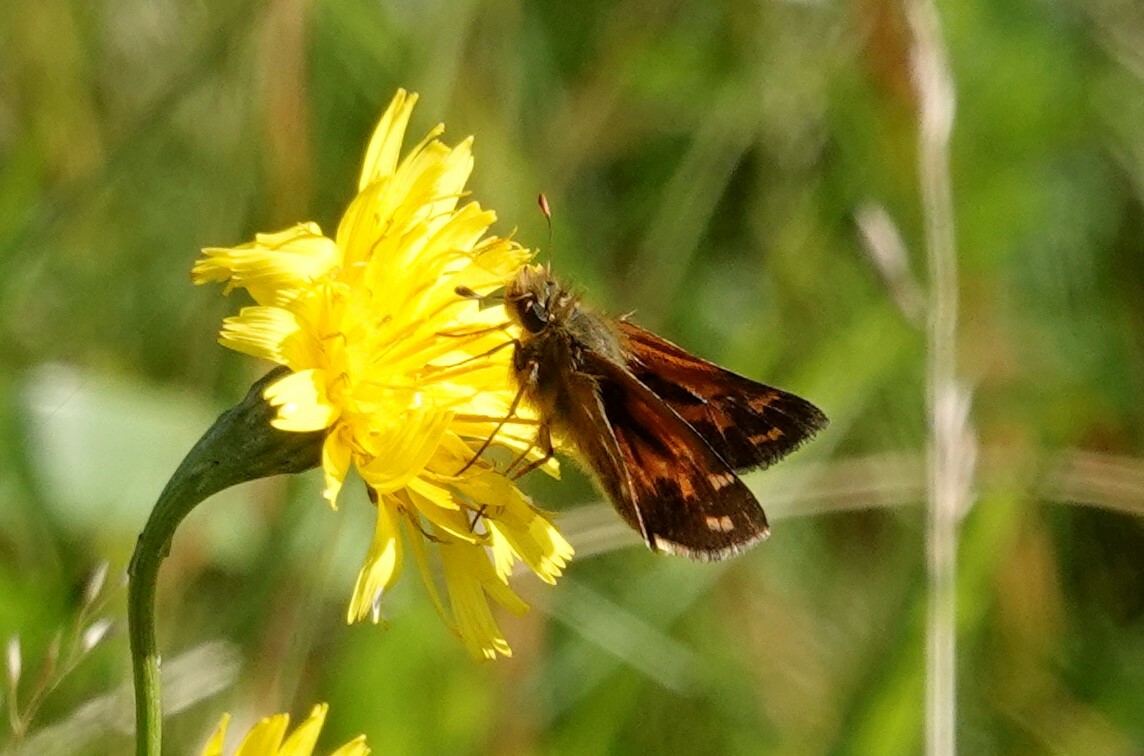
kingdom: Animalia
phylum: Arthropoda
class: Insecta
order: Lepidoptera
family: Hesperiidae
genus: Hesperia
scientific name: Hesperia comma
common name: Common branded skipper
